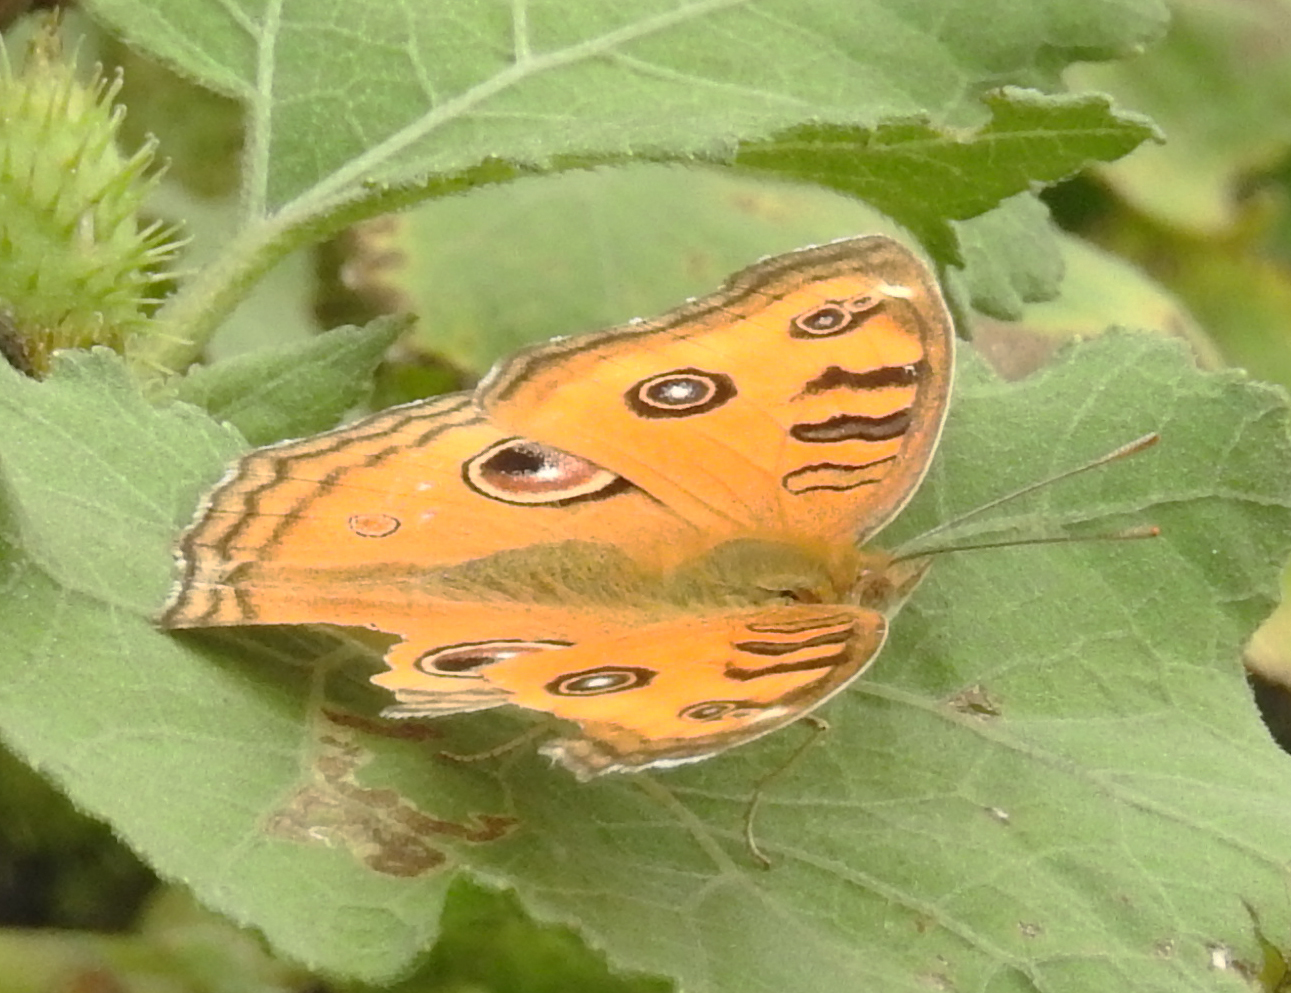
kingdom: Animalia
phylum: Arthropoda
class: Insecta
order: Lepidoptera
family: Nymphalidae
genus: Junonia
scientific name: Junonia almana
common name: Peacock pansy
